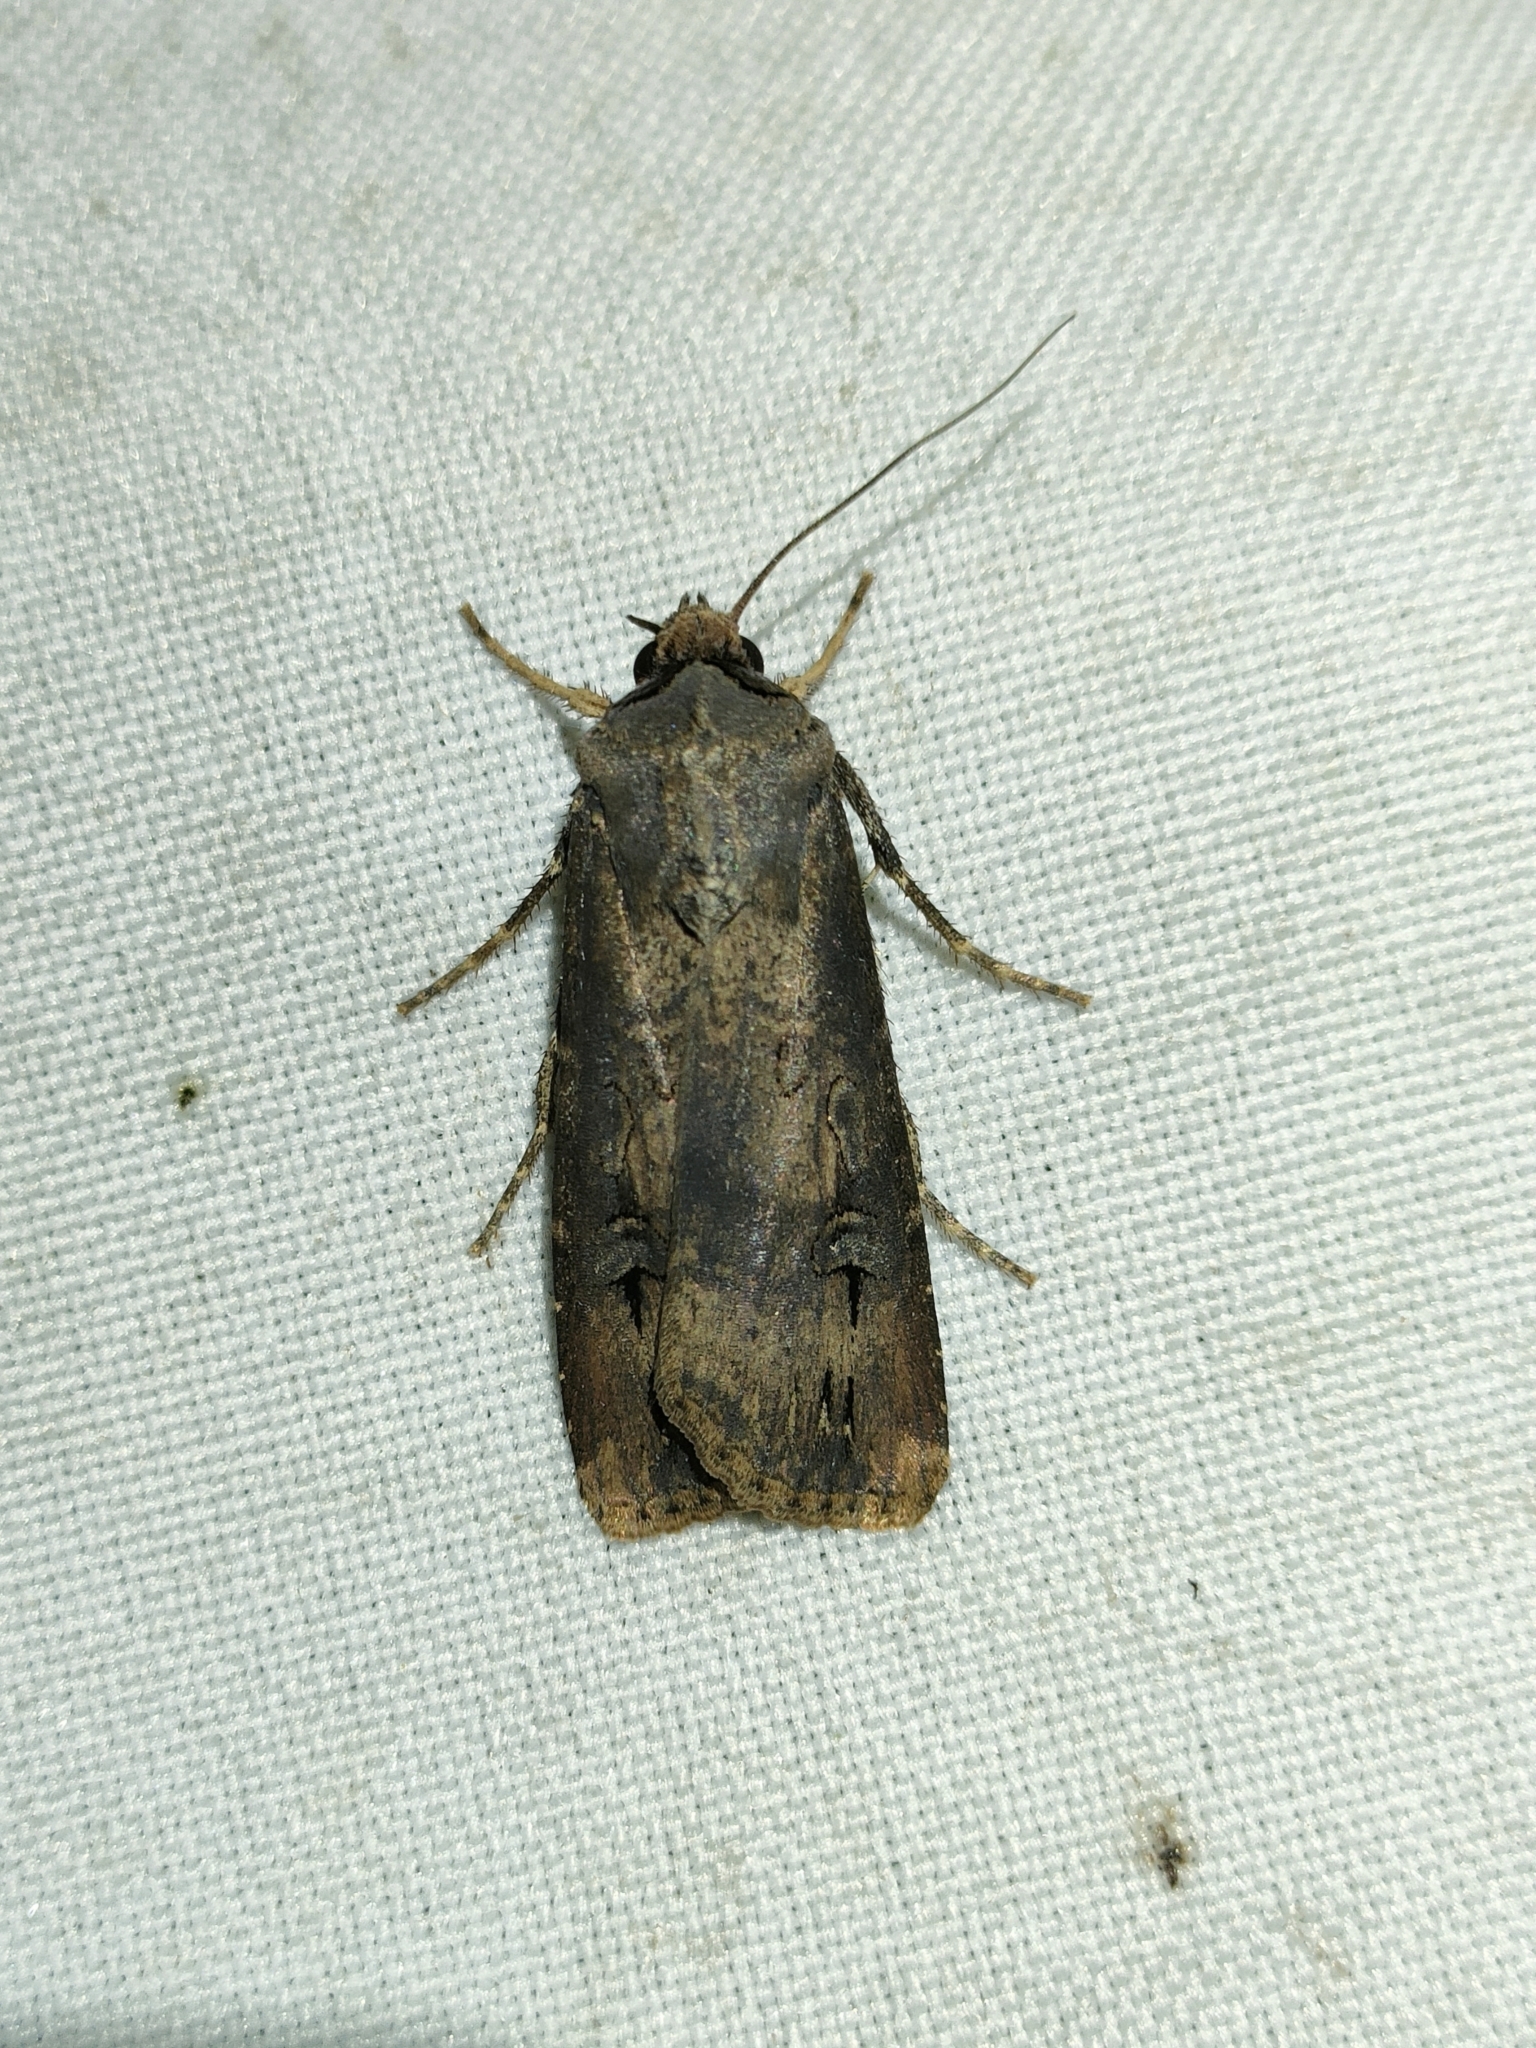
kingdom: Animalia
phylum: Arthropoda
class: Insecta
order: Lepidoptera
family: Noctuidae
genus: Agrotis
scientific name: Agrotis ipsilon
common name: Dark sword-grass
